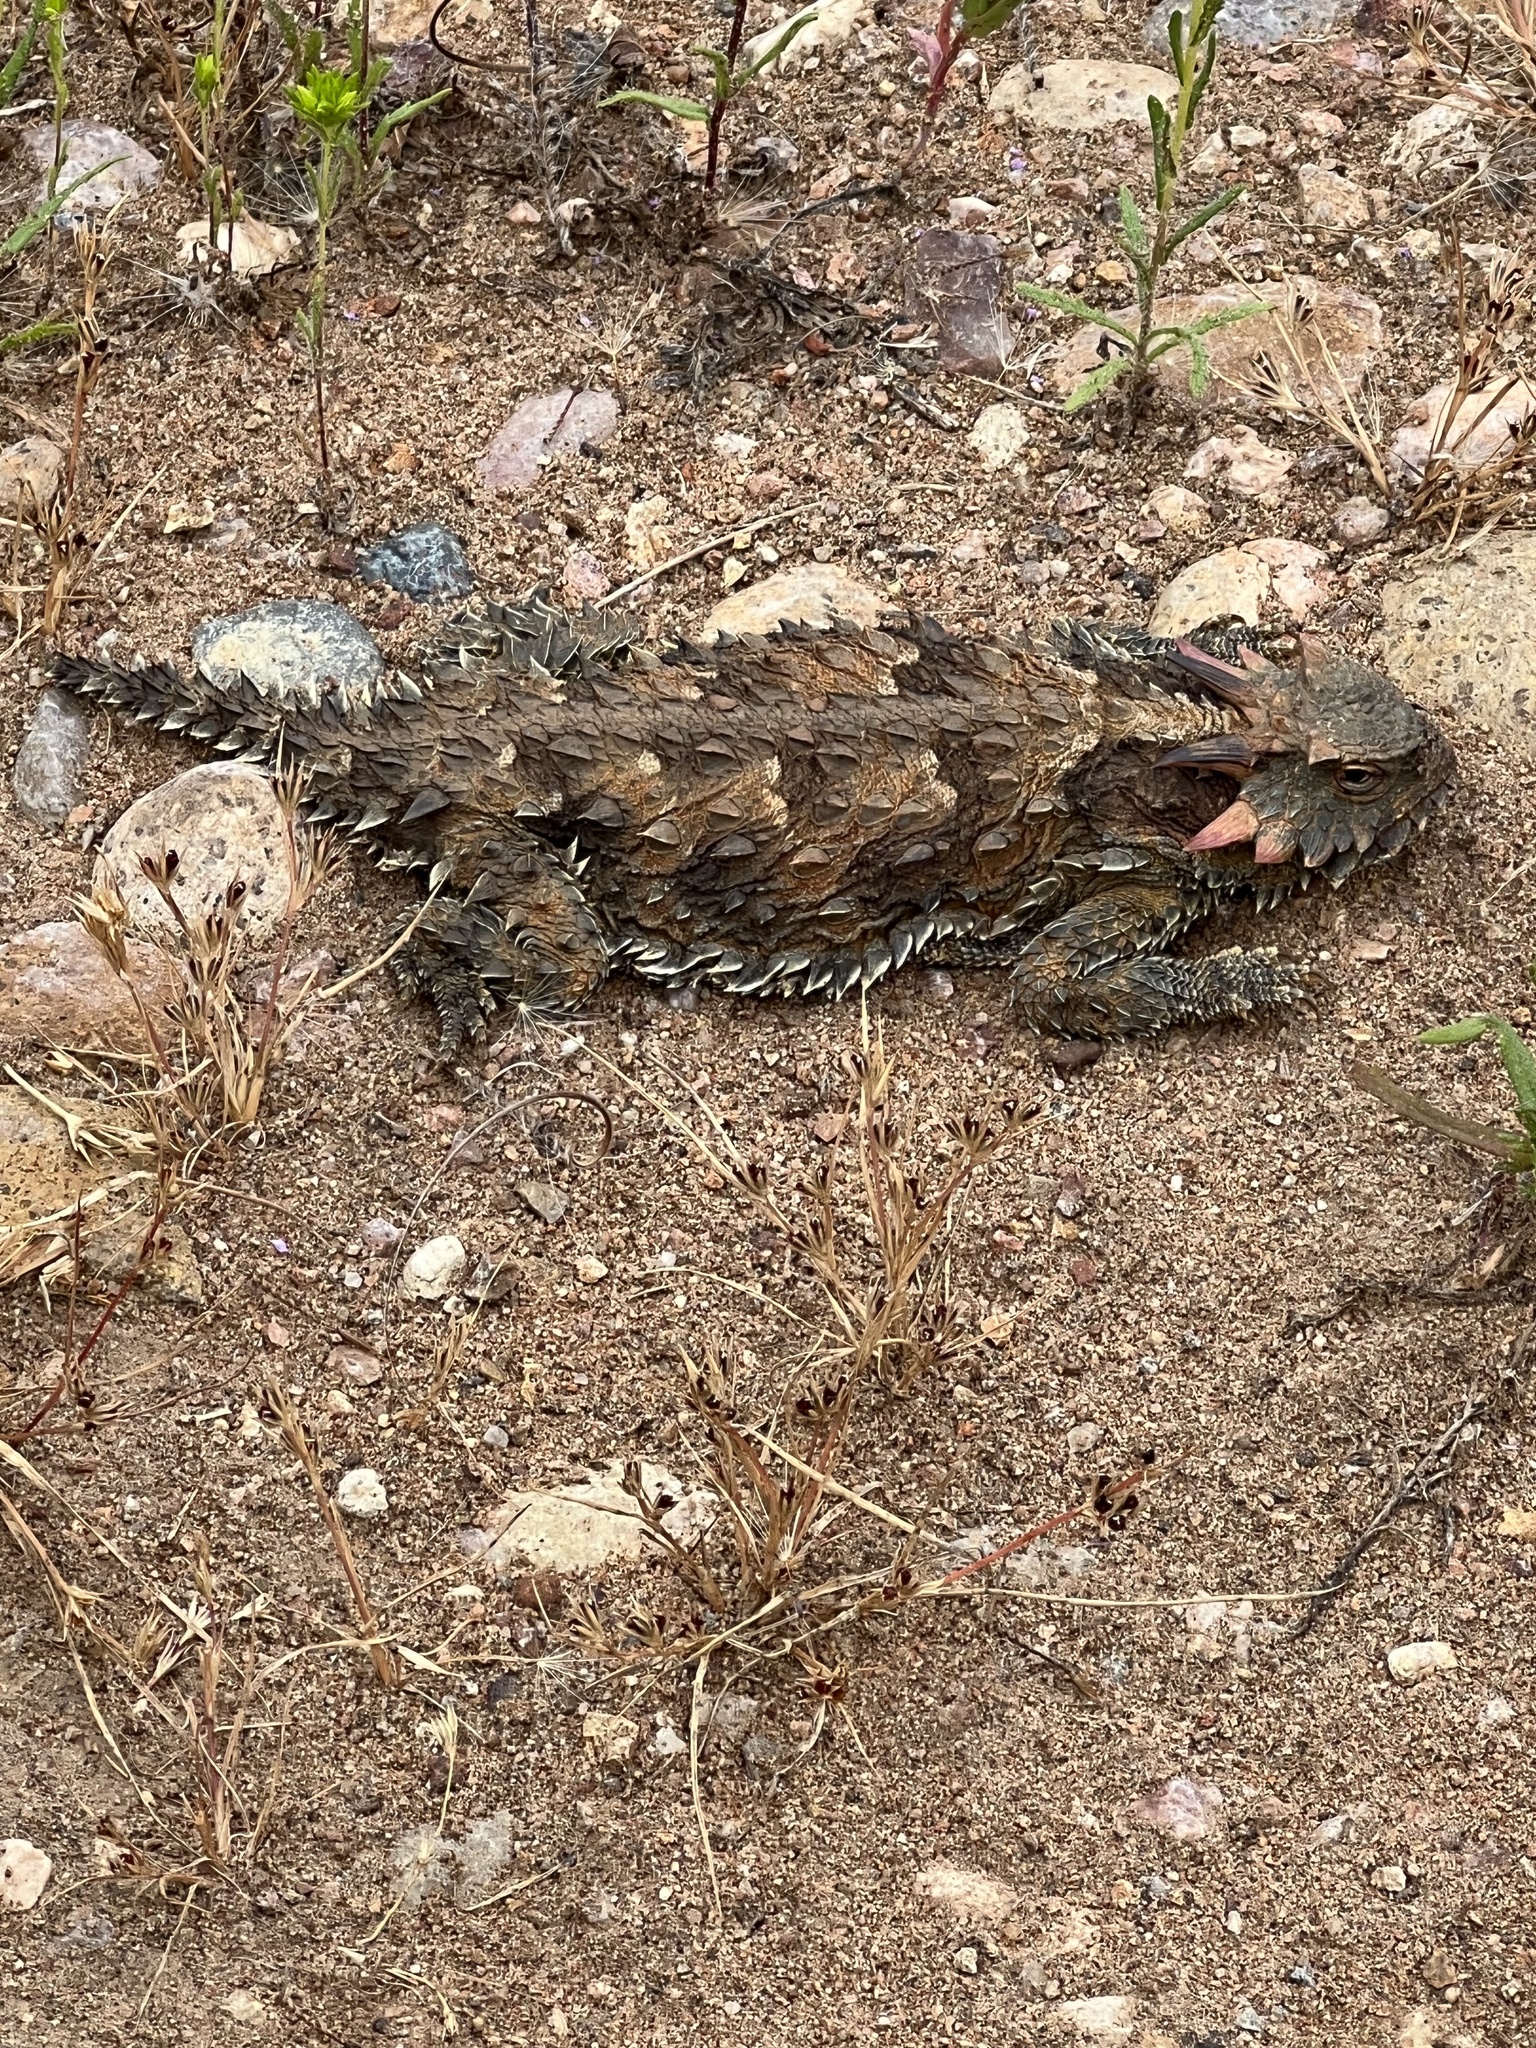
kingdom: Animalia
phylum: Chordata
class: Squamata
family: Phrynosomatidae
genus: Phrynosoma
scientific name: Phrynosoma blainvillii
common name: San diego horned lizard
